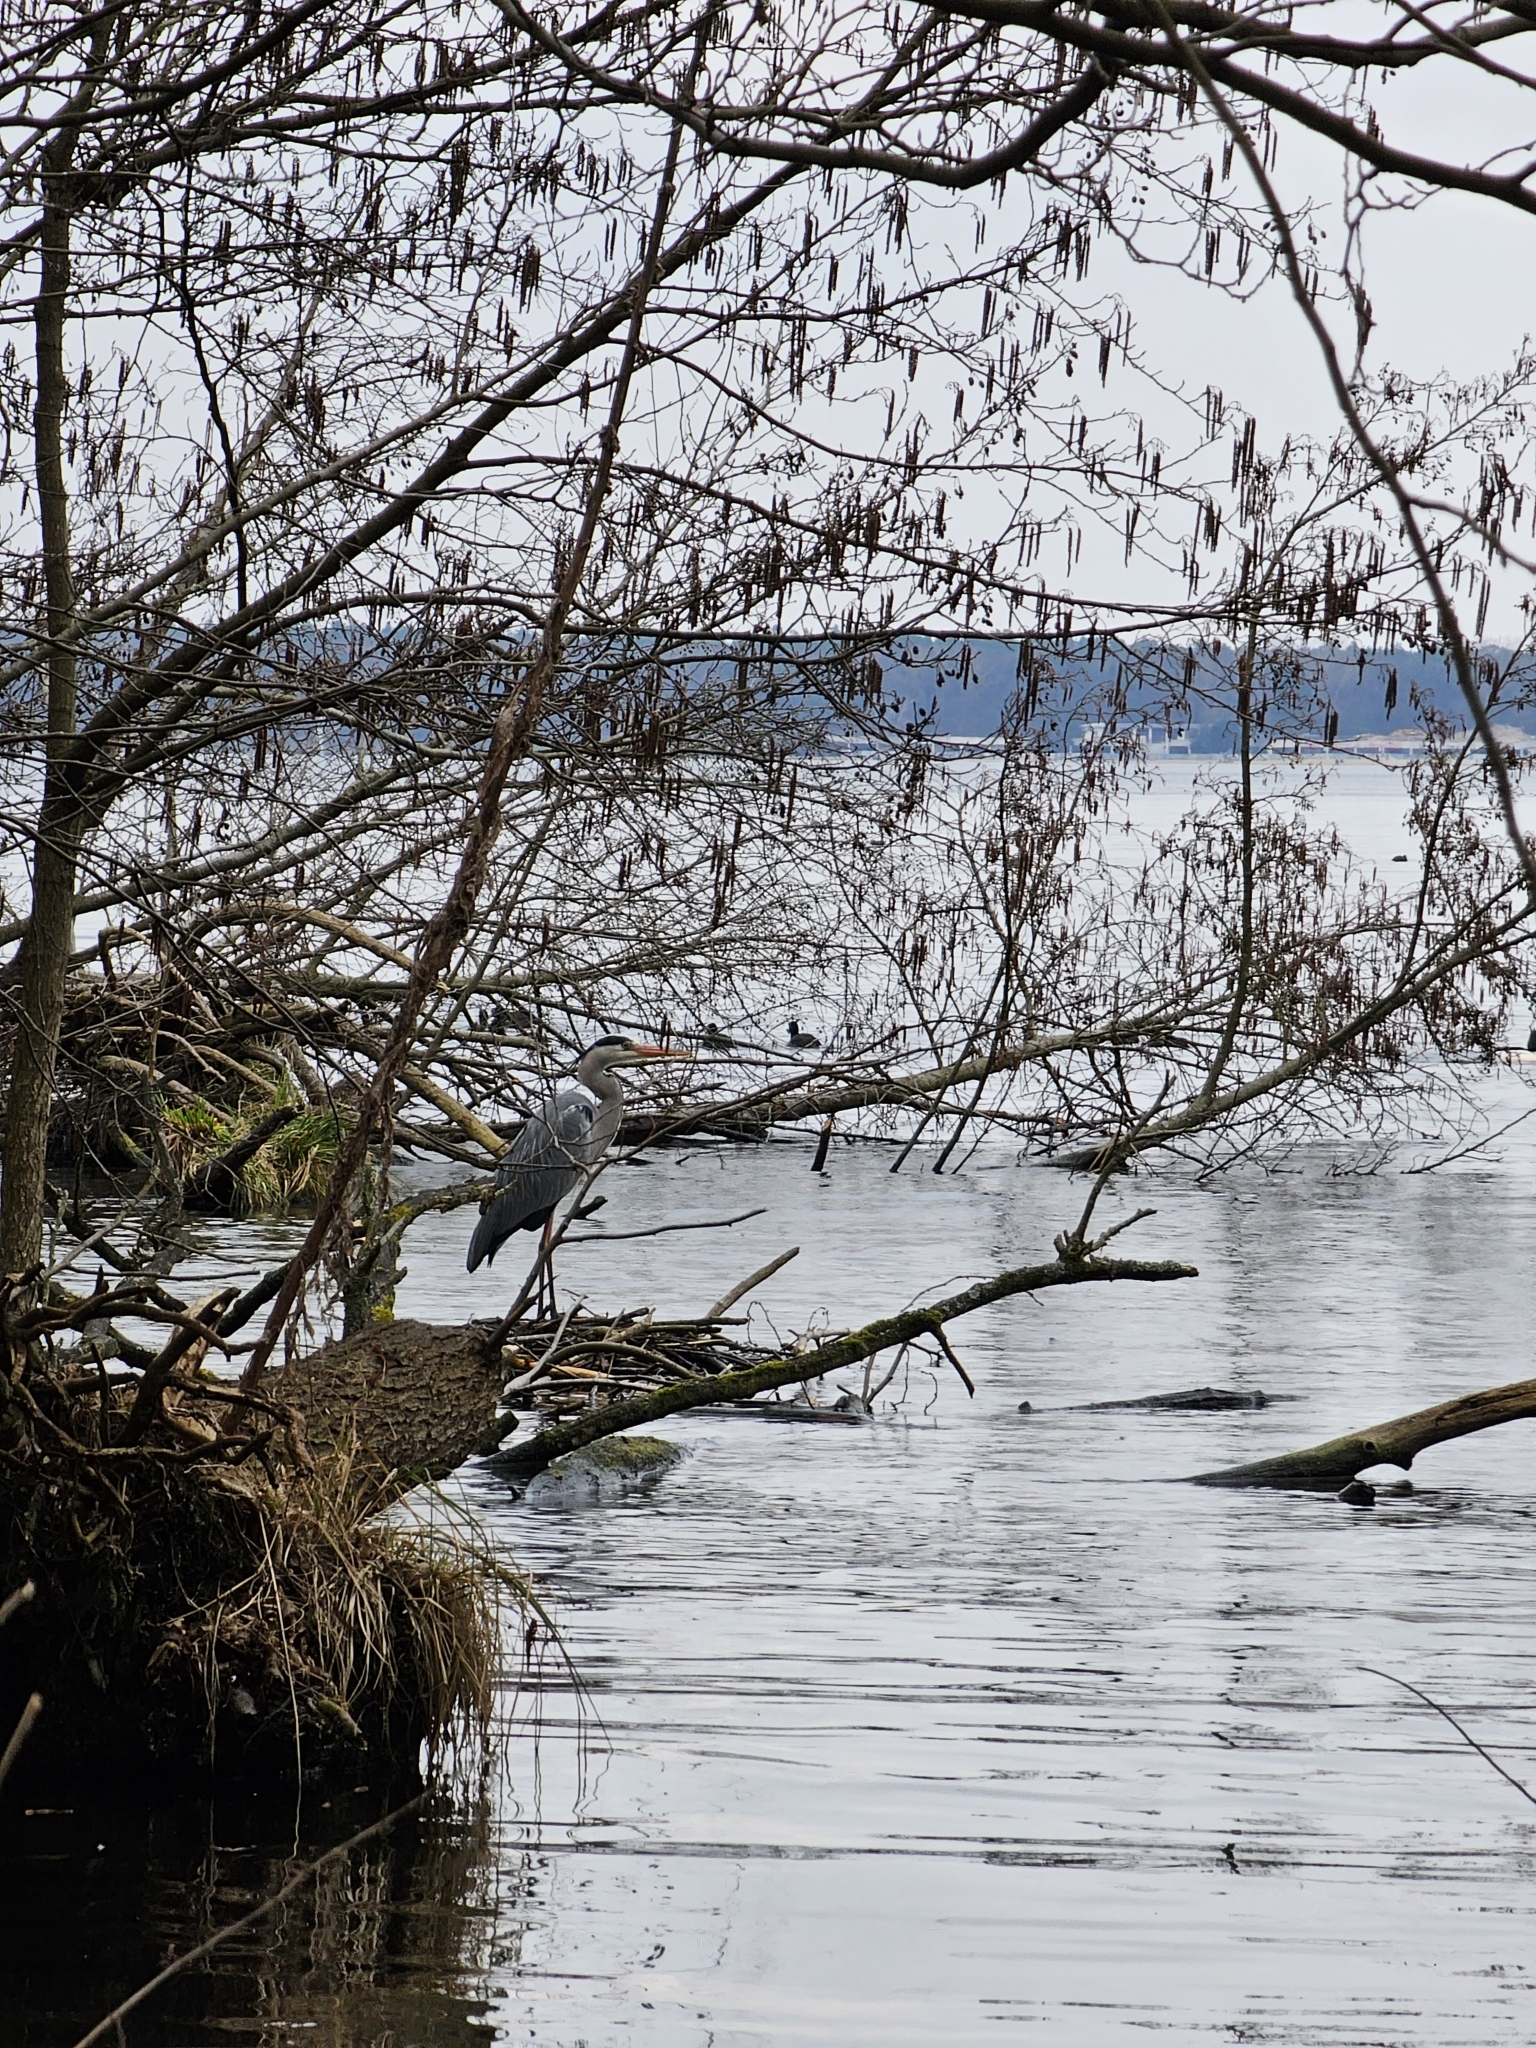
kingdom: Animalia
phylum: Chordata
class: Aves
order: Pelecaniformes
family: Ardeidae
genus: Ardea
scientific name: Ardea cinerea
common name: Grey heron
